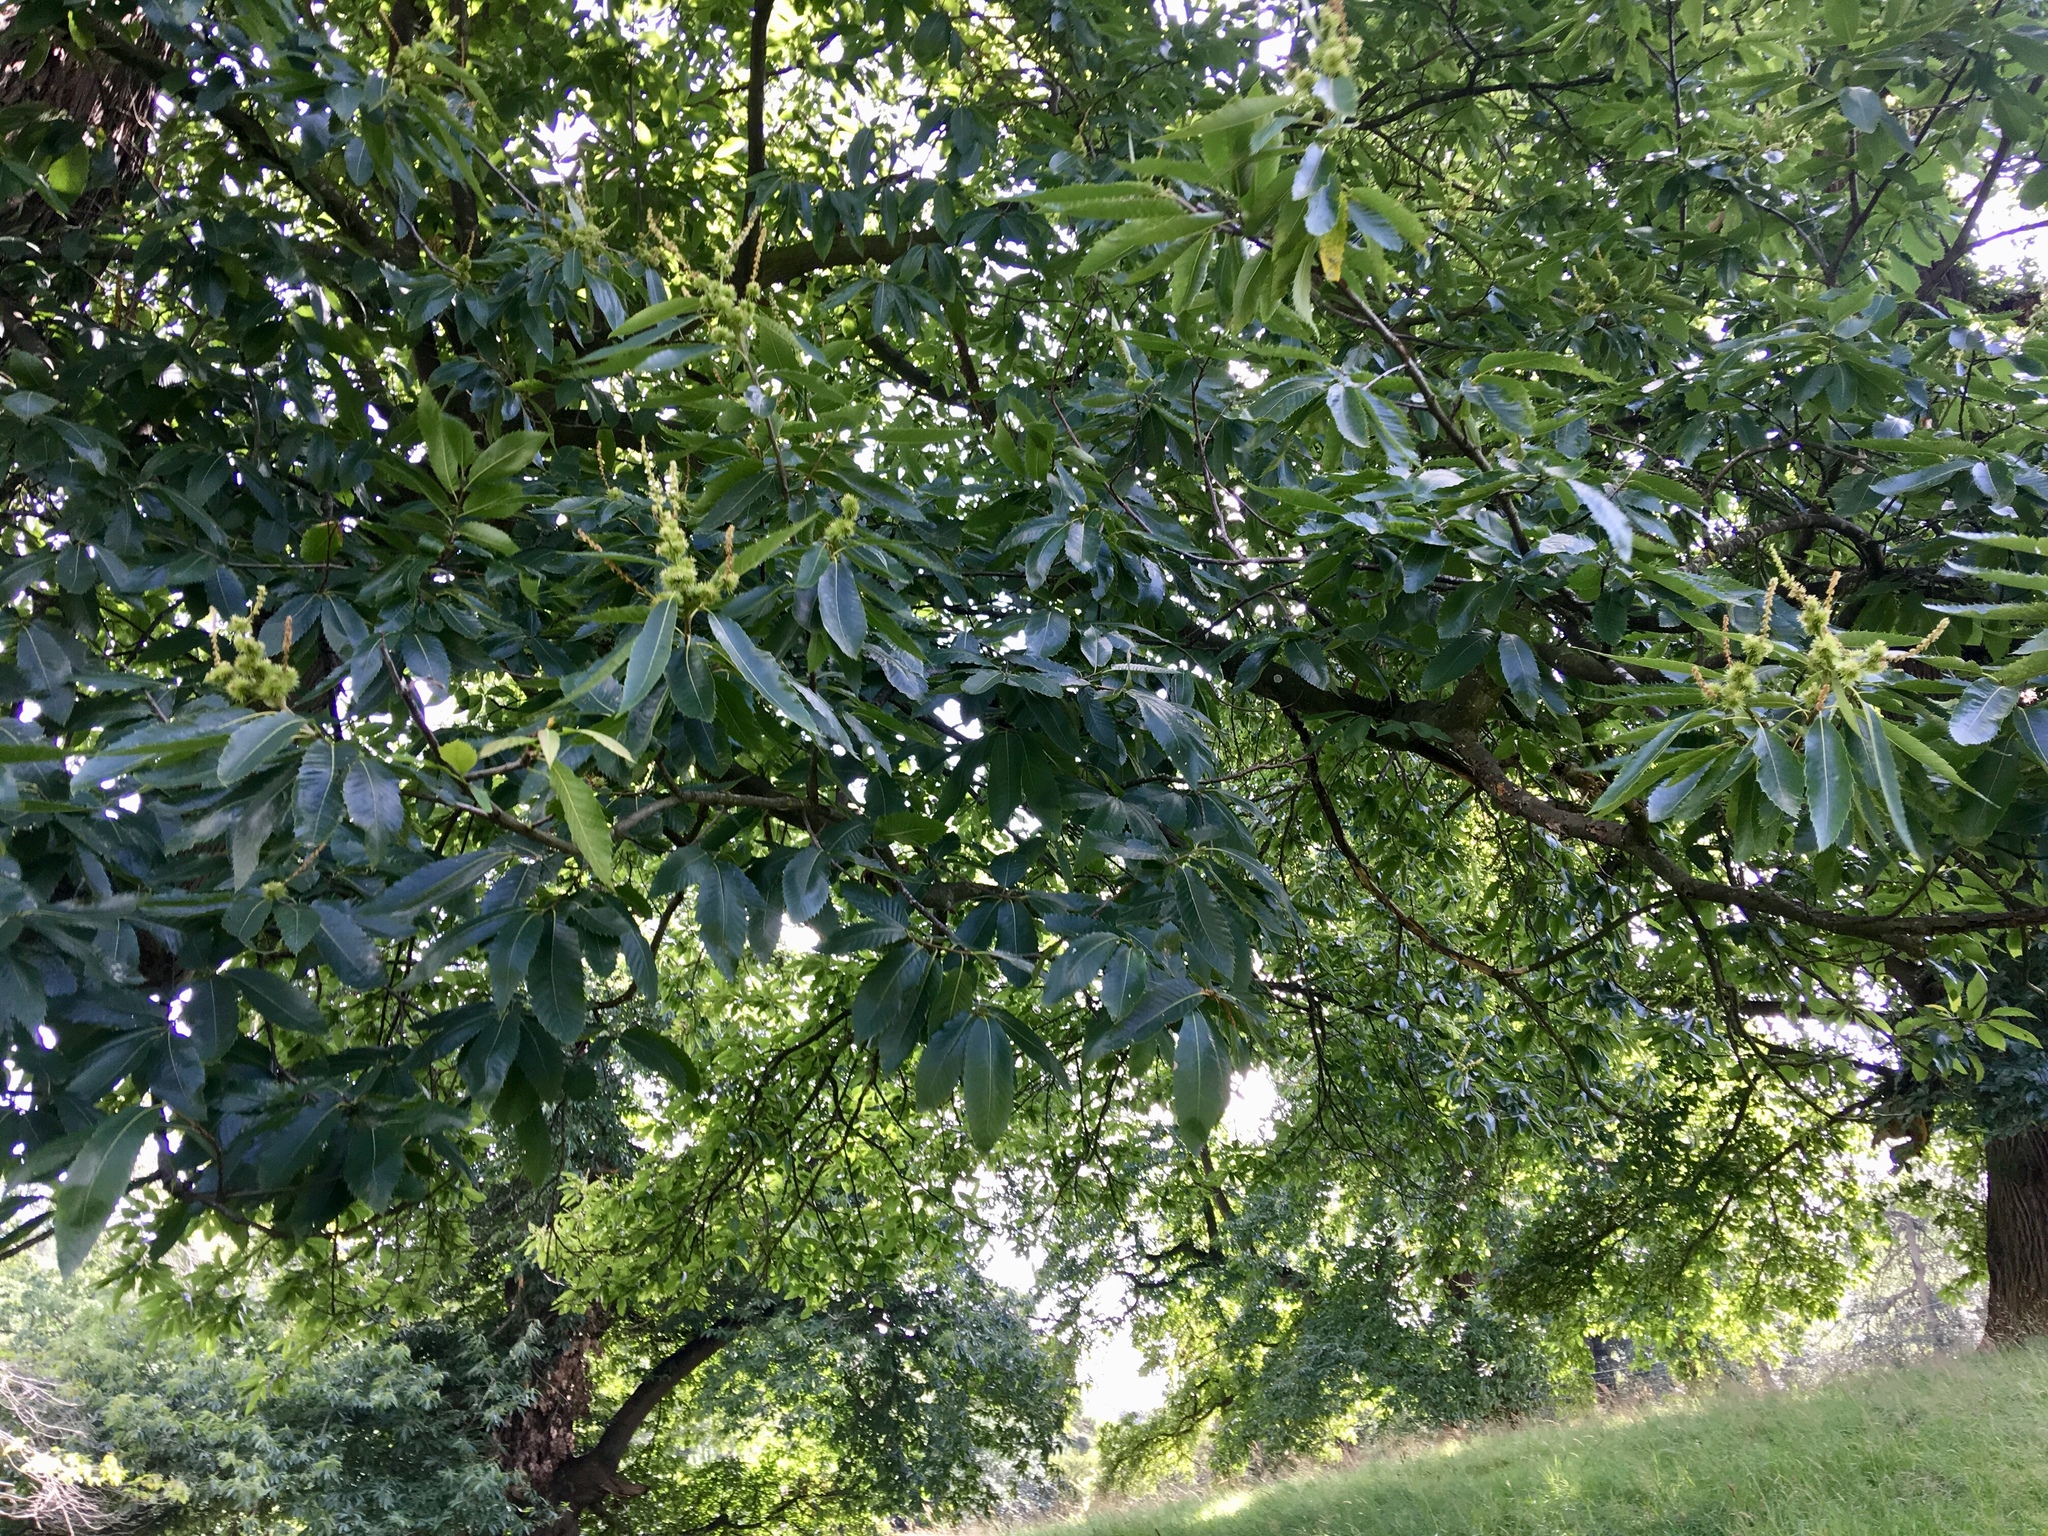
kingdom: Plantae
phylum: Tracheophyta
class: Magnoliopsida
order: Fagales
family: Fagaceae
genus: Castanea
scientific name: Castanea sativa
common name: Sweet chestnut
